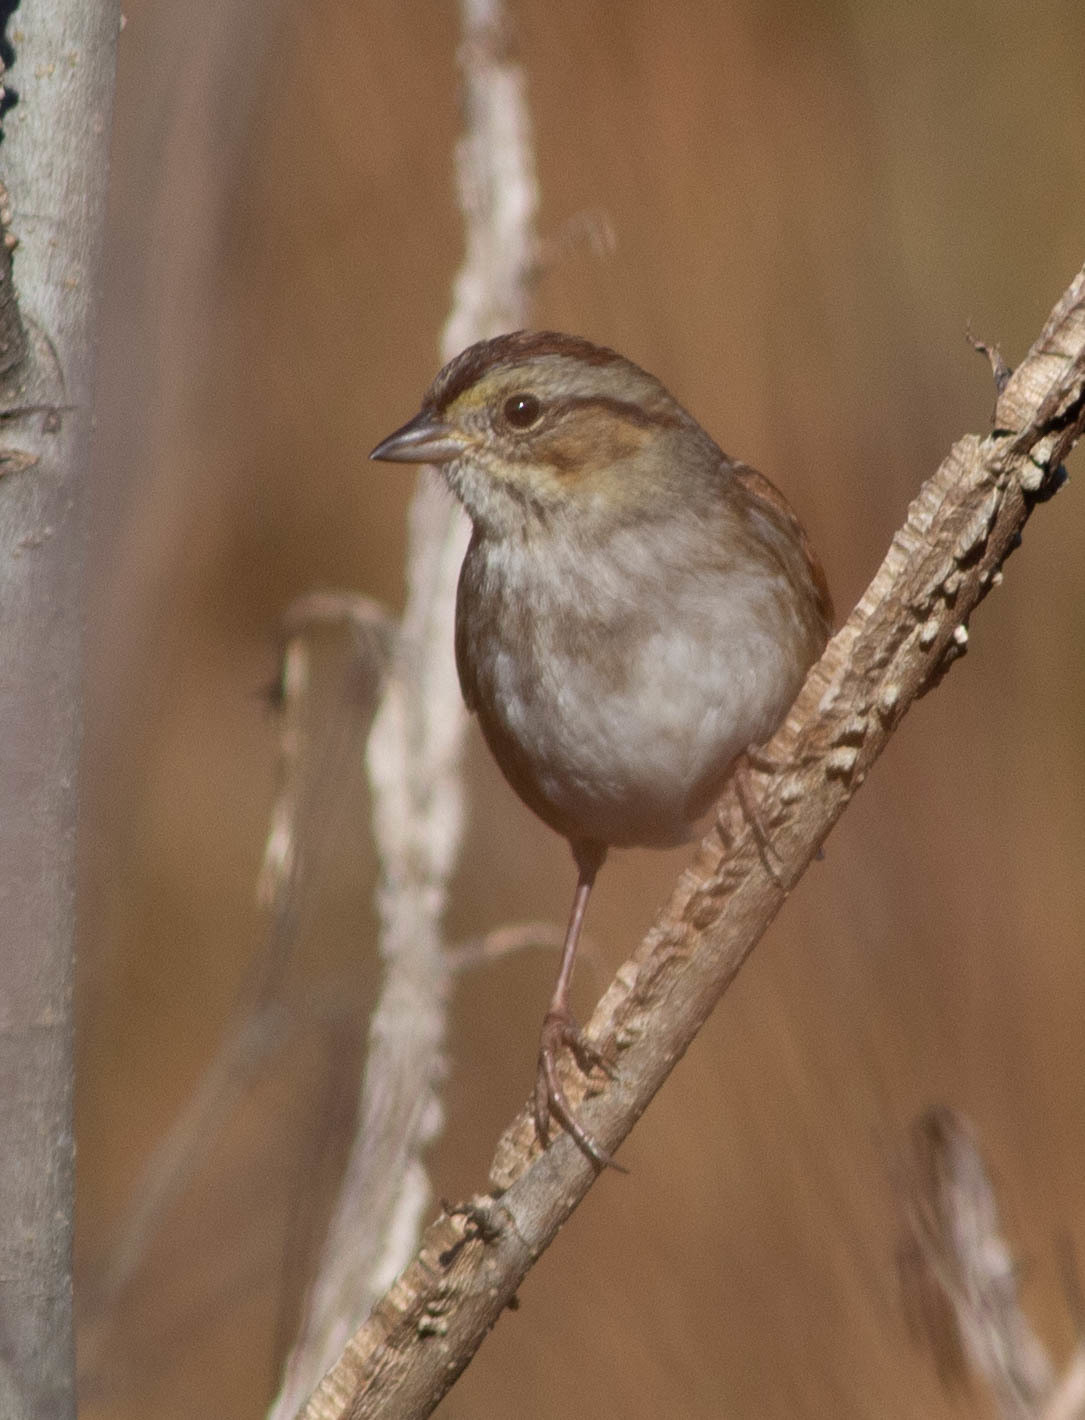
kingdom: Animalia
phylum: Chordata
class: Aves
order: Passeriformes
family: Passerellidae
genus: Melospiza
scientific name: Melospiza georgiana
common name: Swamp sparrow
